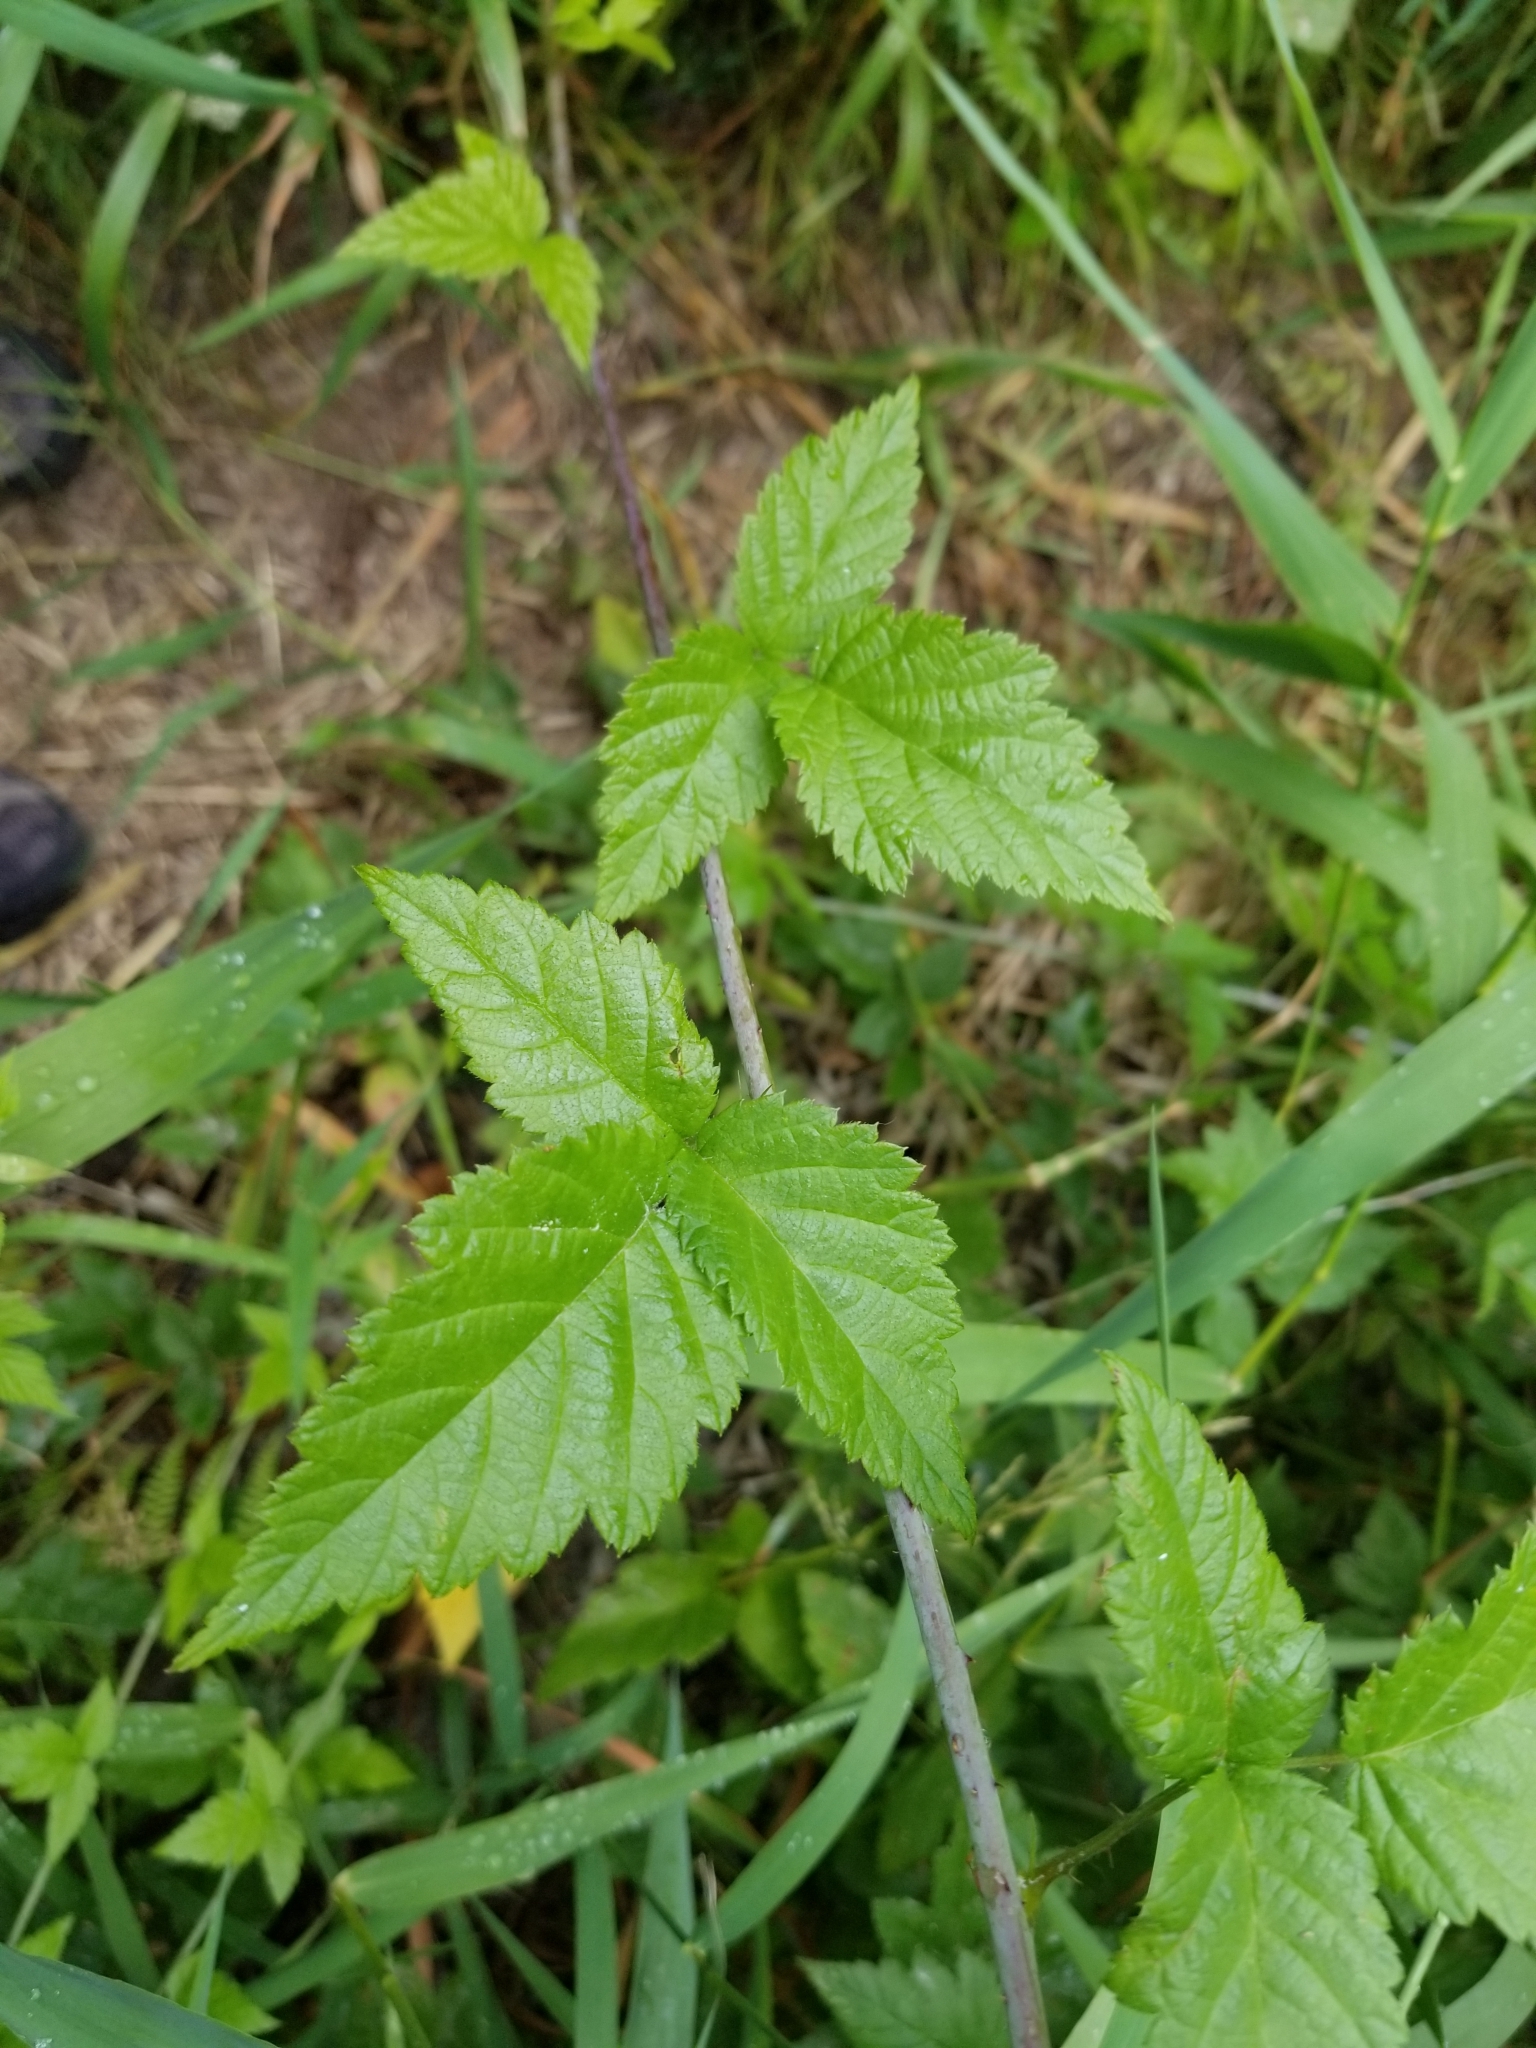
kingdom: Plantae
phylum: Tracheophyta
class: Magnoliopsida
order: Rosales
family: Rosaceae
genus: Rubus
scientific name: Rubus ursinus
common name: Pacific blackberry
